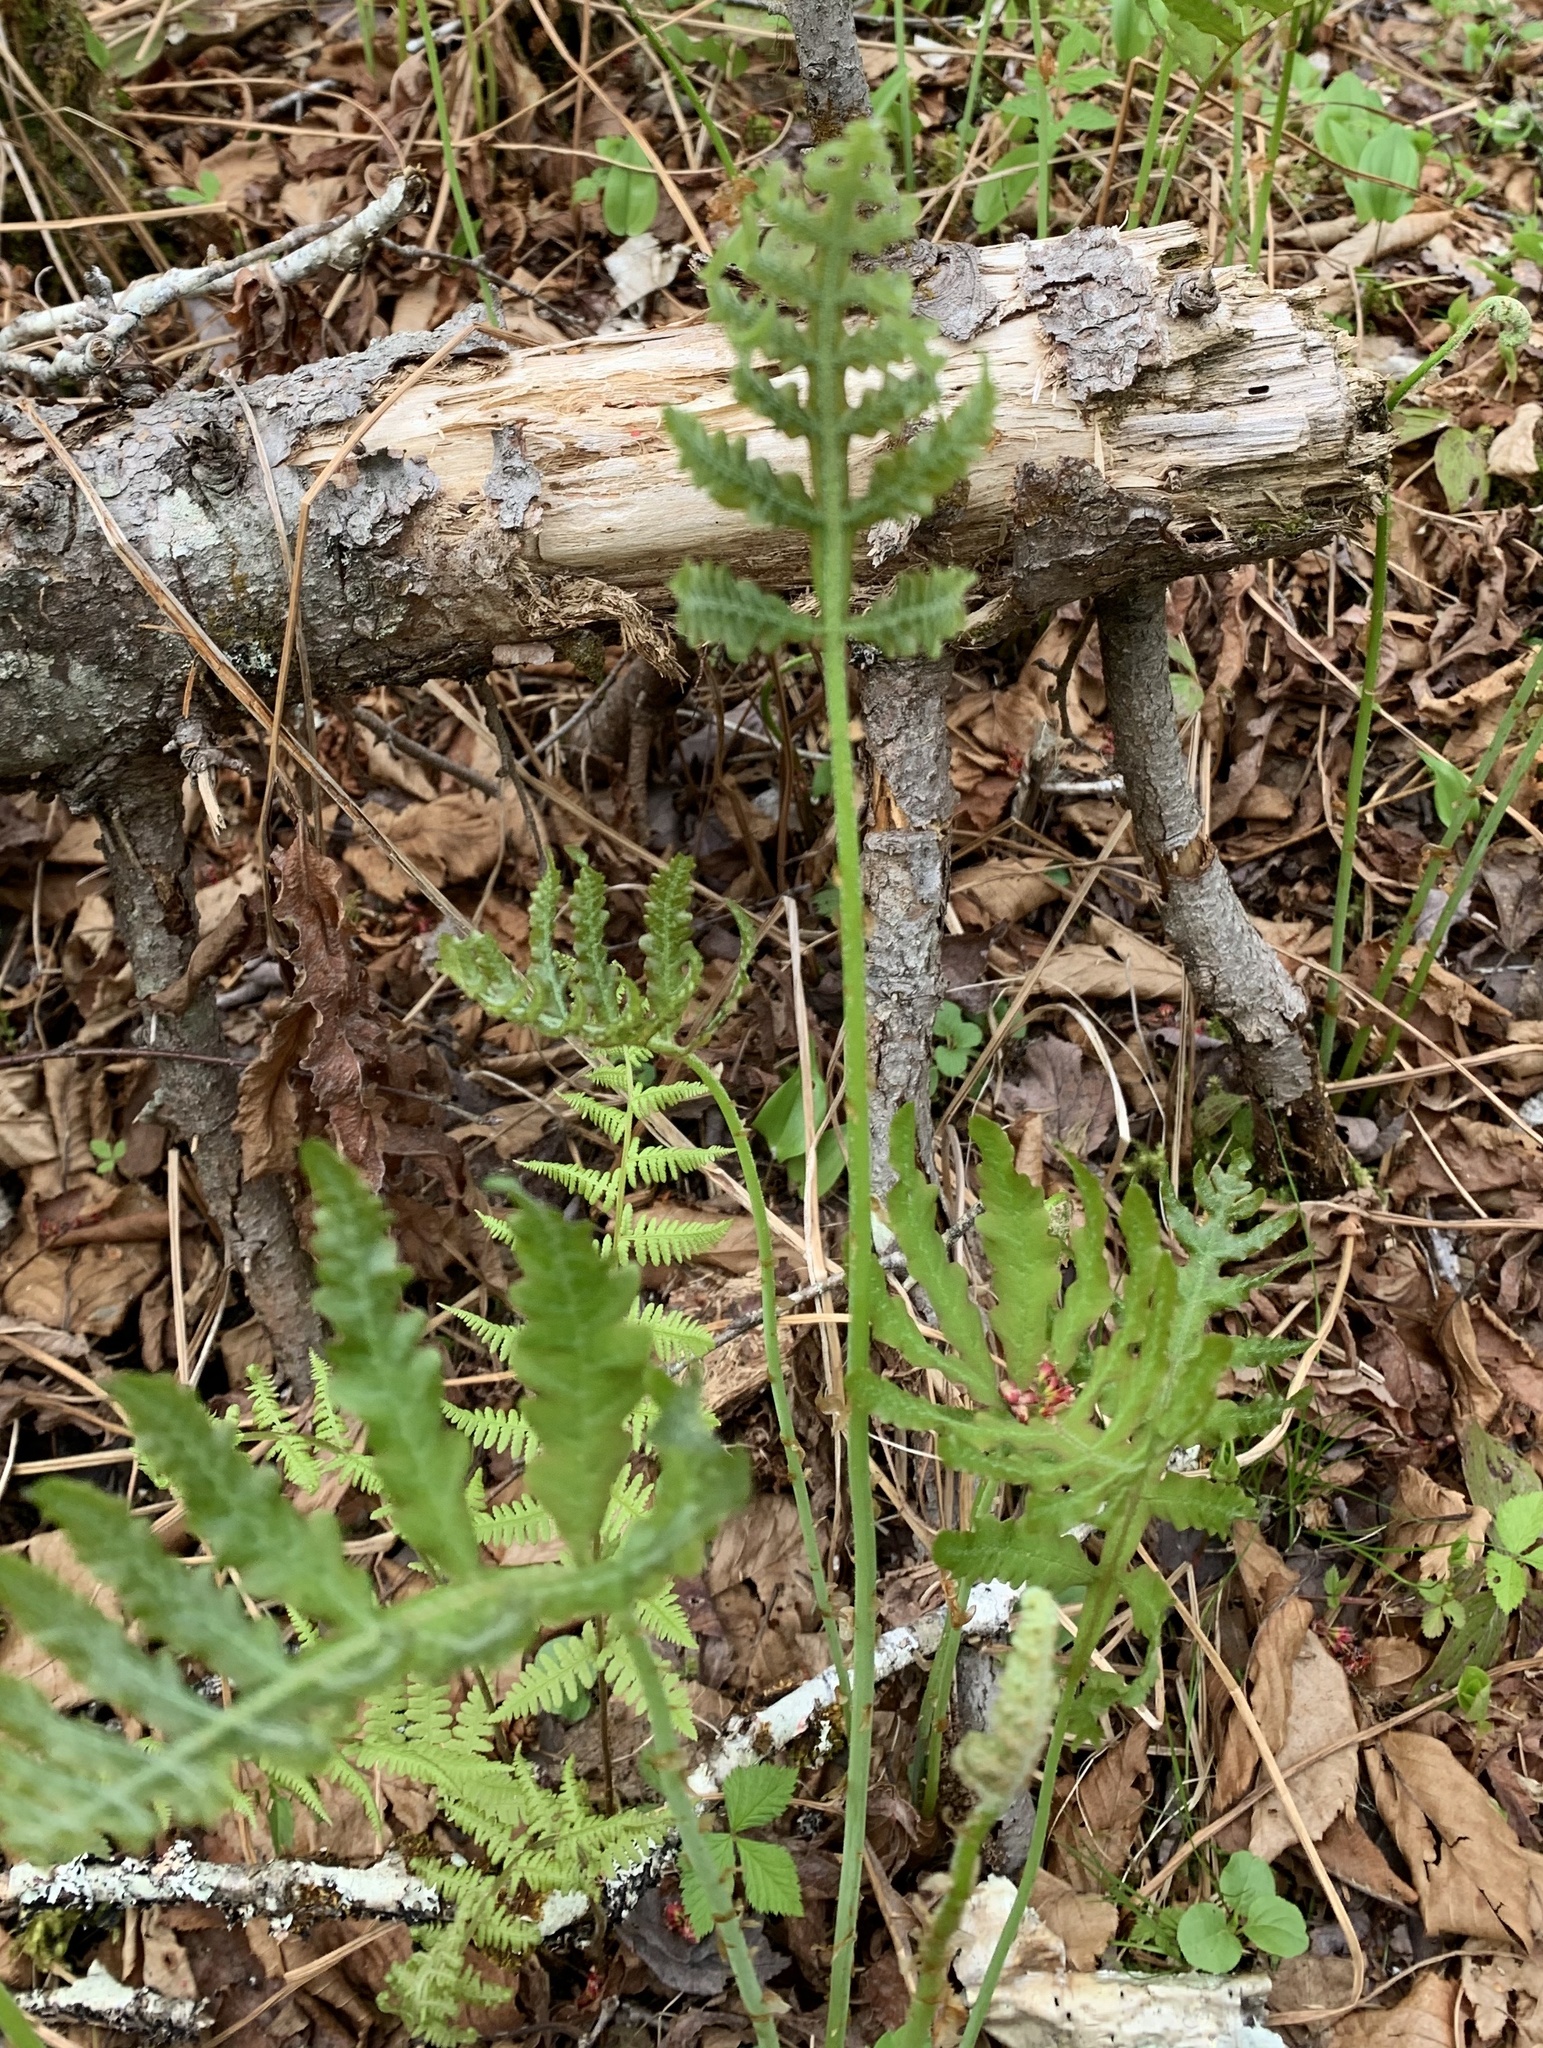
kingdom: Plantae
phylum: Tracheophyta
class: Polypodiopsida
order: Polypodiales
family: Onocleaceae
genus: Onoclea
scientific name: Onoclea sensibilis
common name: Sensitive fern
